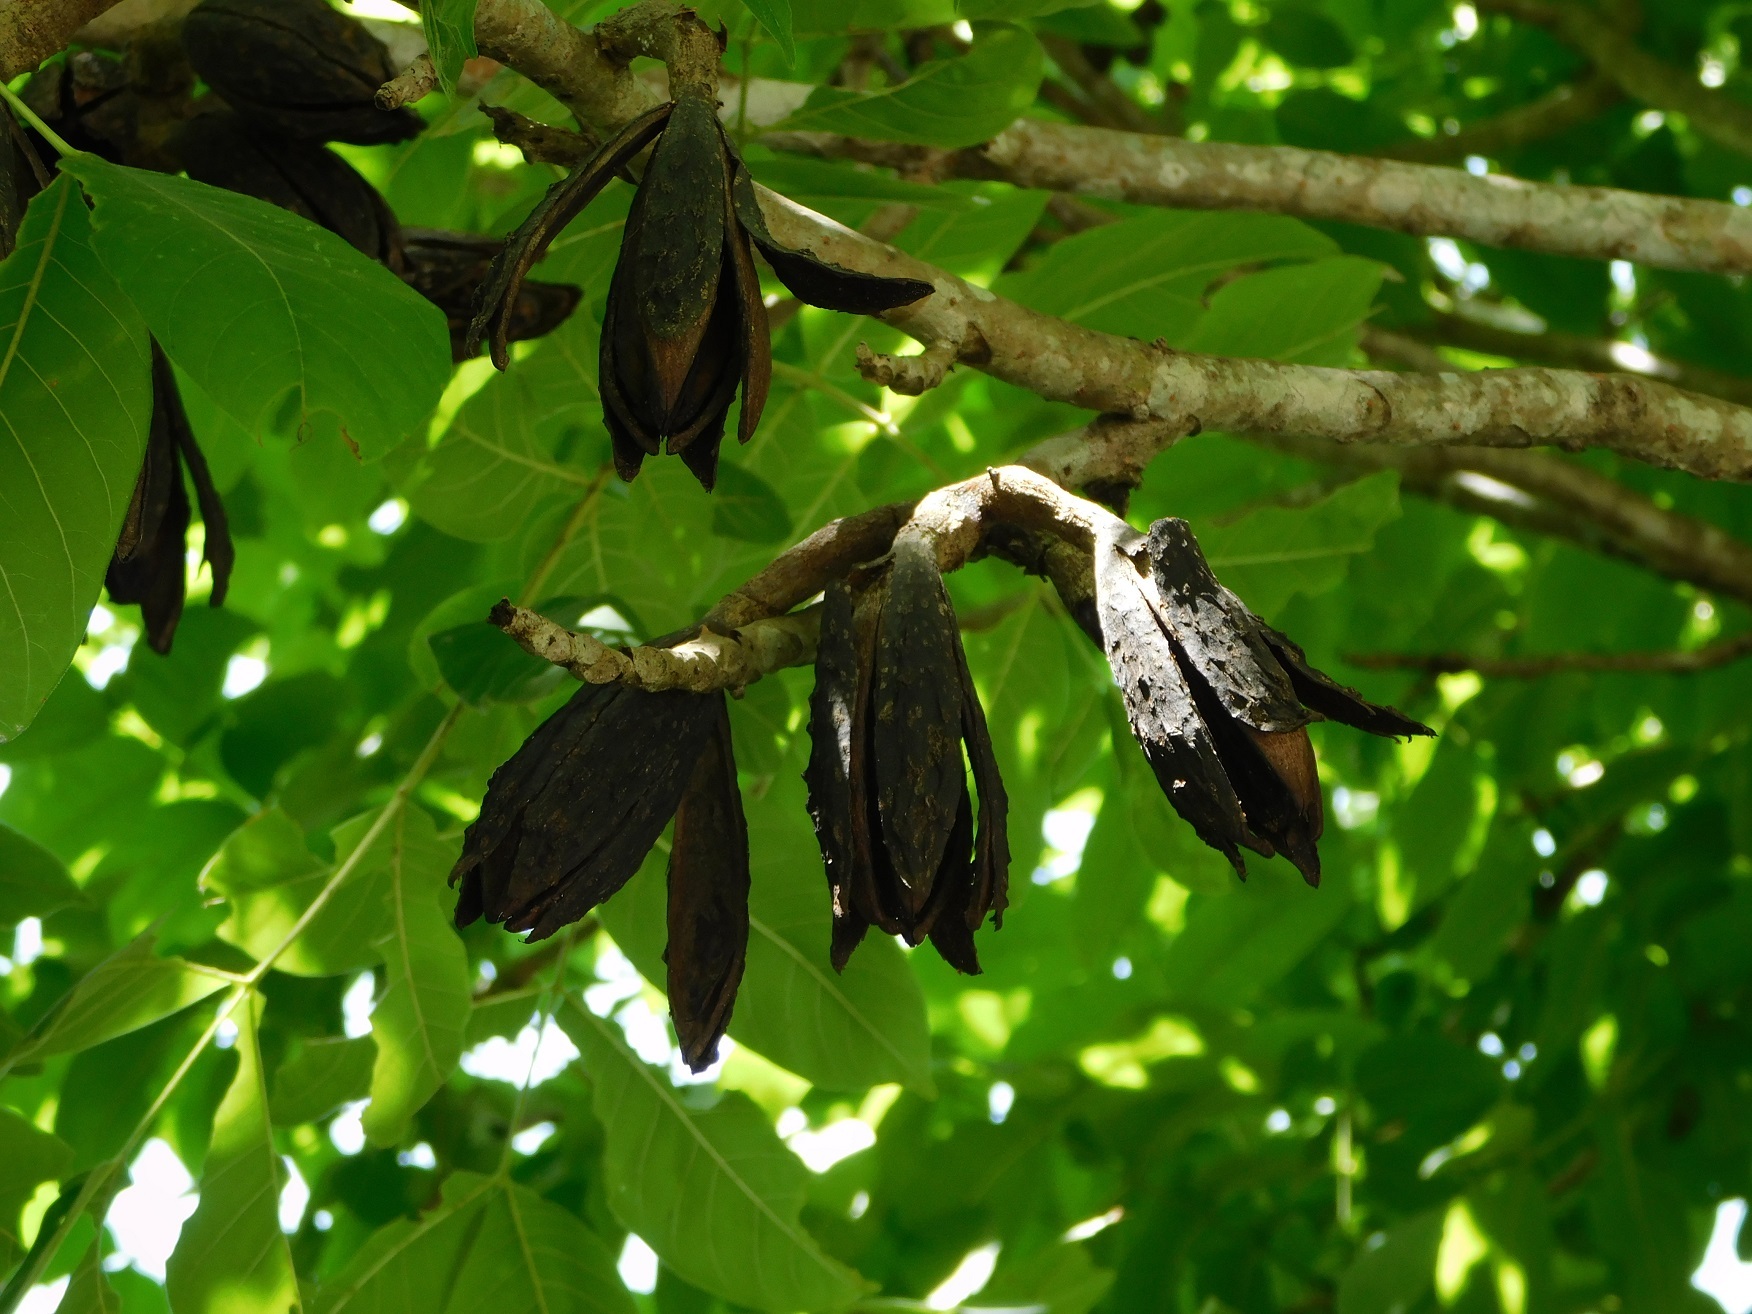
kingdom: Plantae
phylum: Tracheophyta
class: Magnoliopsida
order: Sapindales
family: Meliaceae
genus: Cedrela
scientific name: Cedrela salvadorensis
